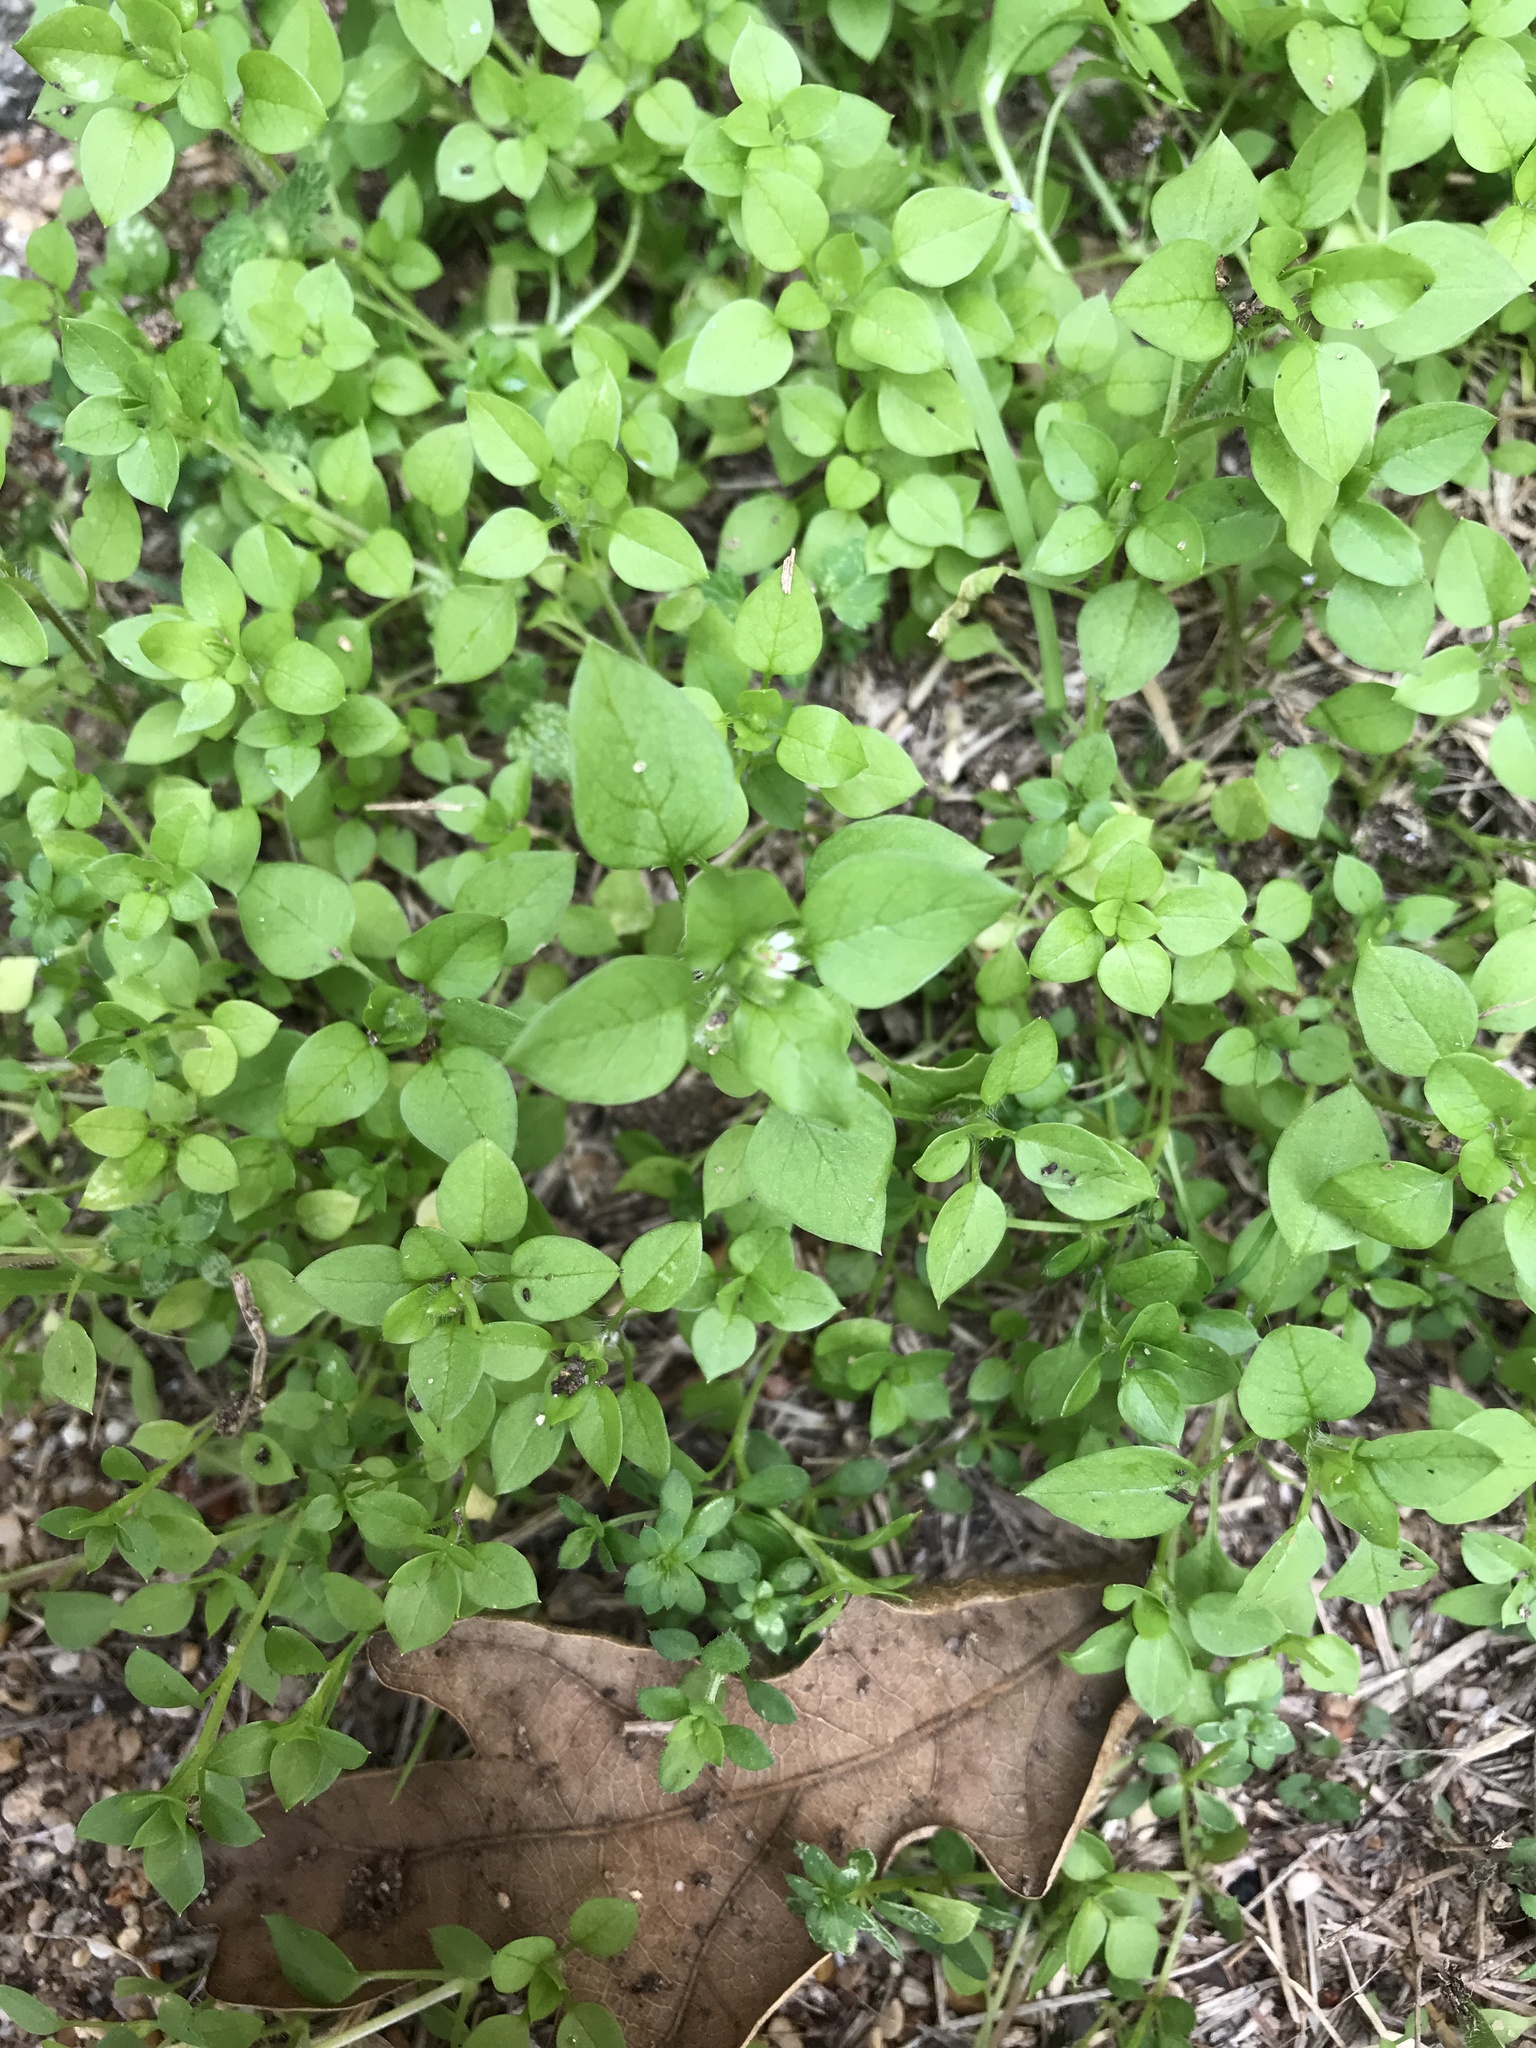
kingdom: Plantae
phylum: Tracheophyta
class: Magnoliopsida
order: Caryophyllales
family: Caryophyllaceae
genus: Stellaria
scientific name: Stellaria media
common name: Common chickweed
